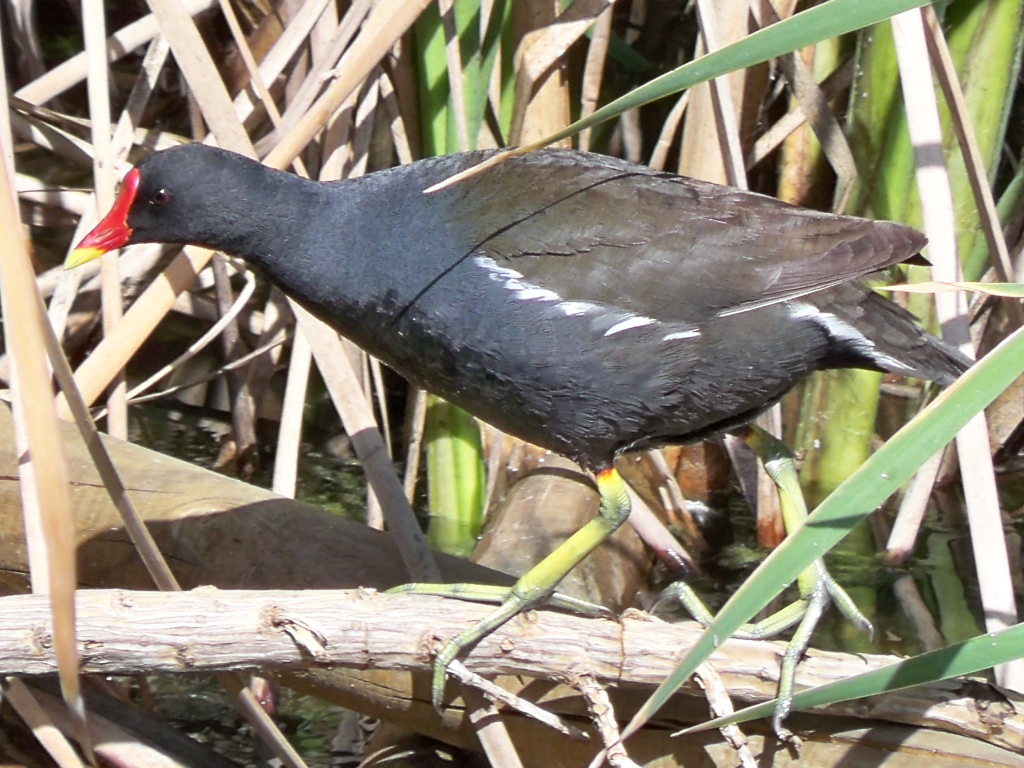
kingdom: Animalia
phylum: Chordata
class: Aves
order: Gruiformes
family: Rallidae
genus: Gallinula
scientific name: Gallinula chloropus
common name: Common moorhen
